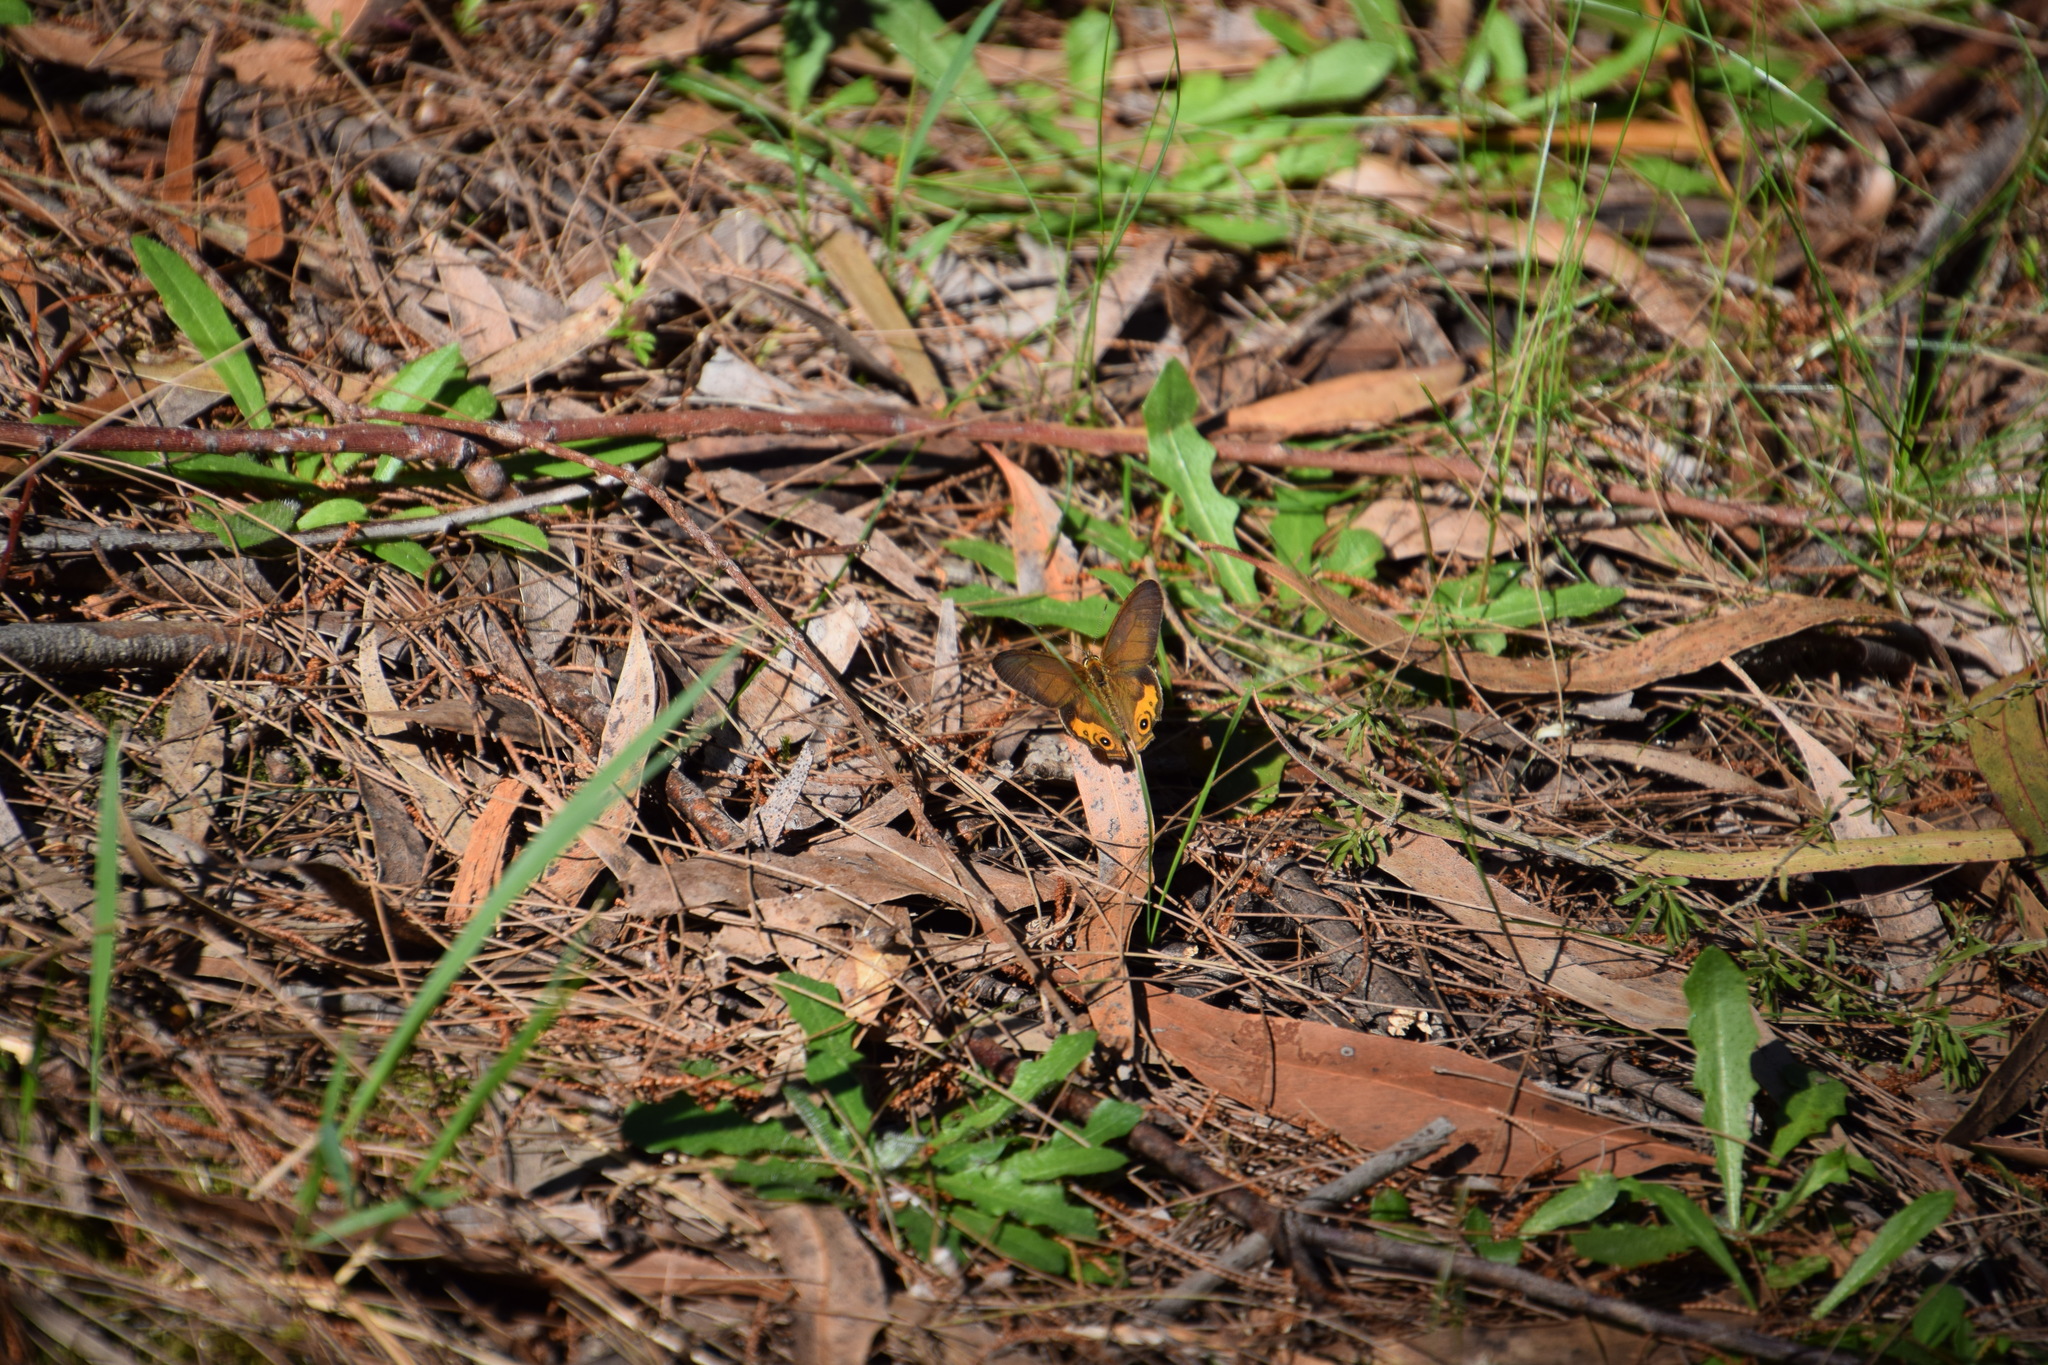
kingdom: Animalia
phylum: Arthropoda
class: Insecta
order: Lepidoptera
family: Nymphalidae
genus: Hypocysta
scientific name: Hypocysta metirius
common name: Brown ringlet
